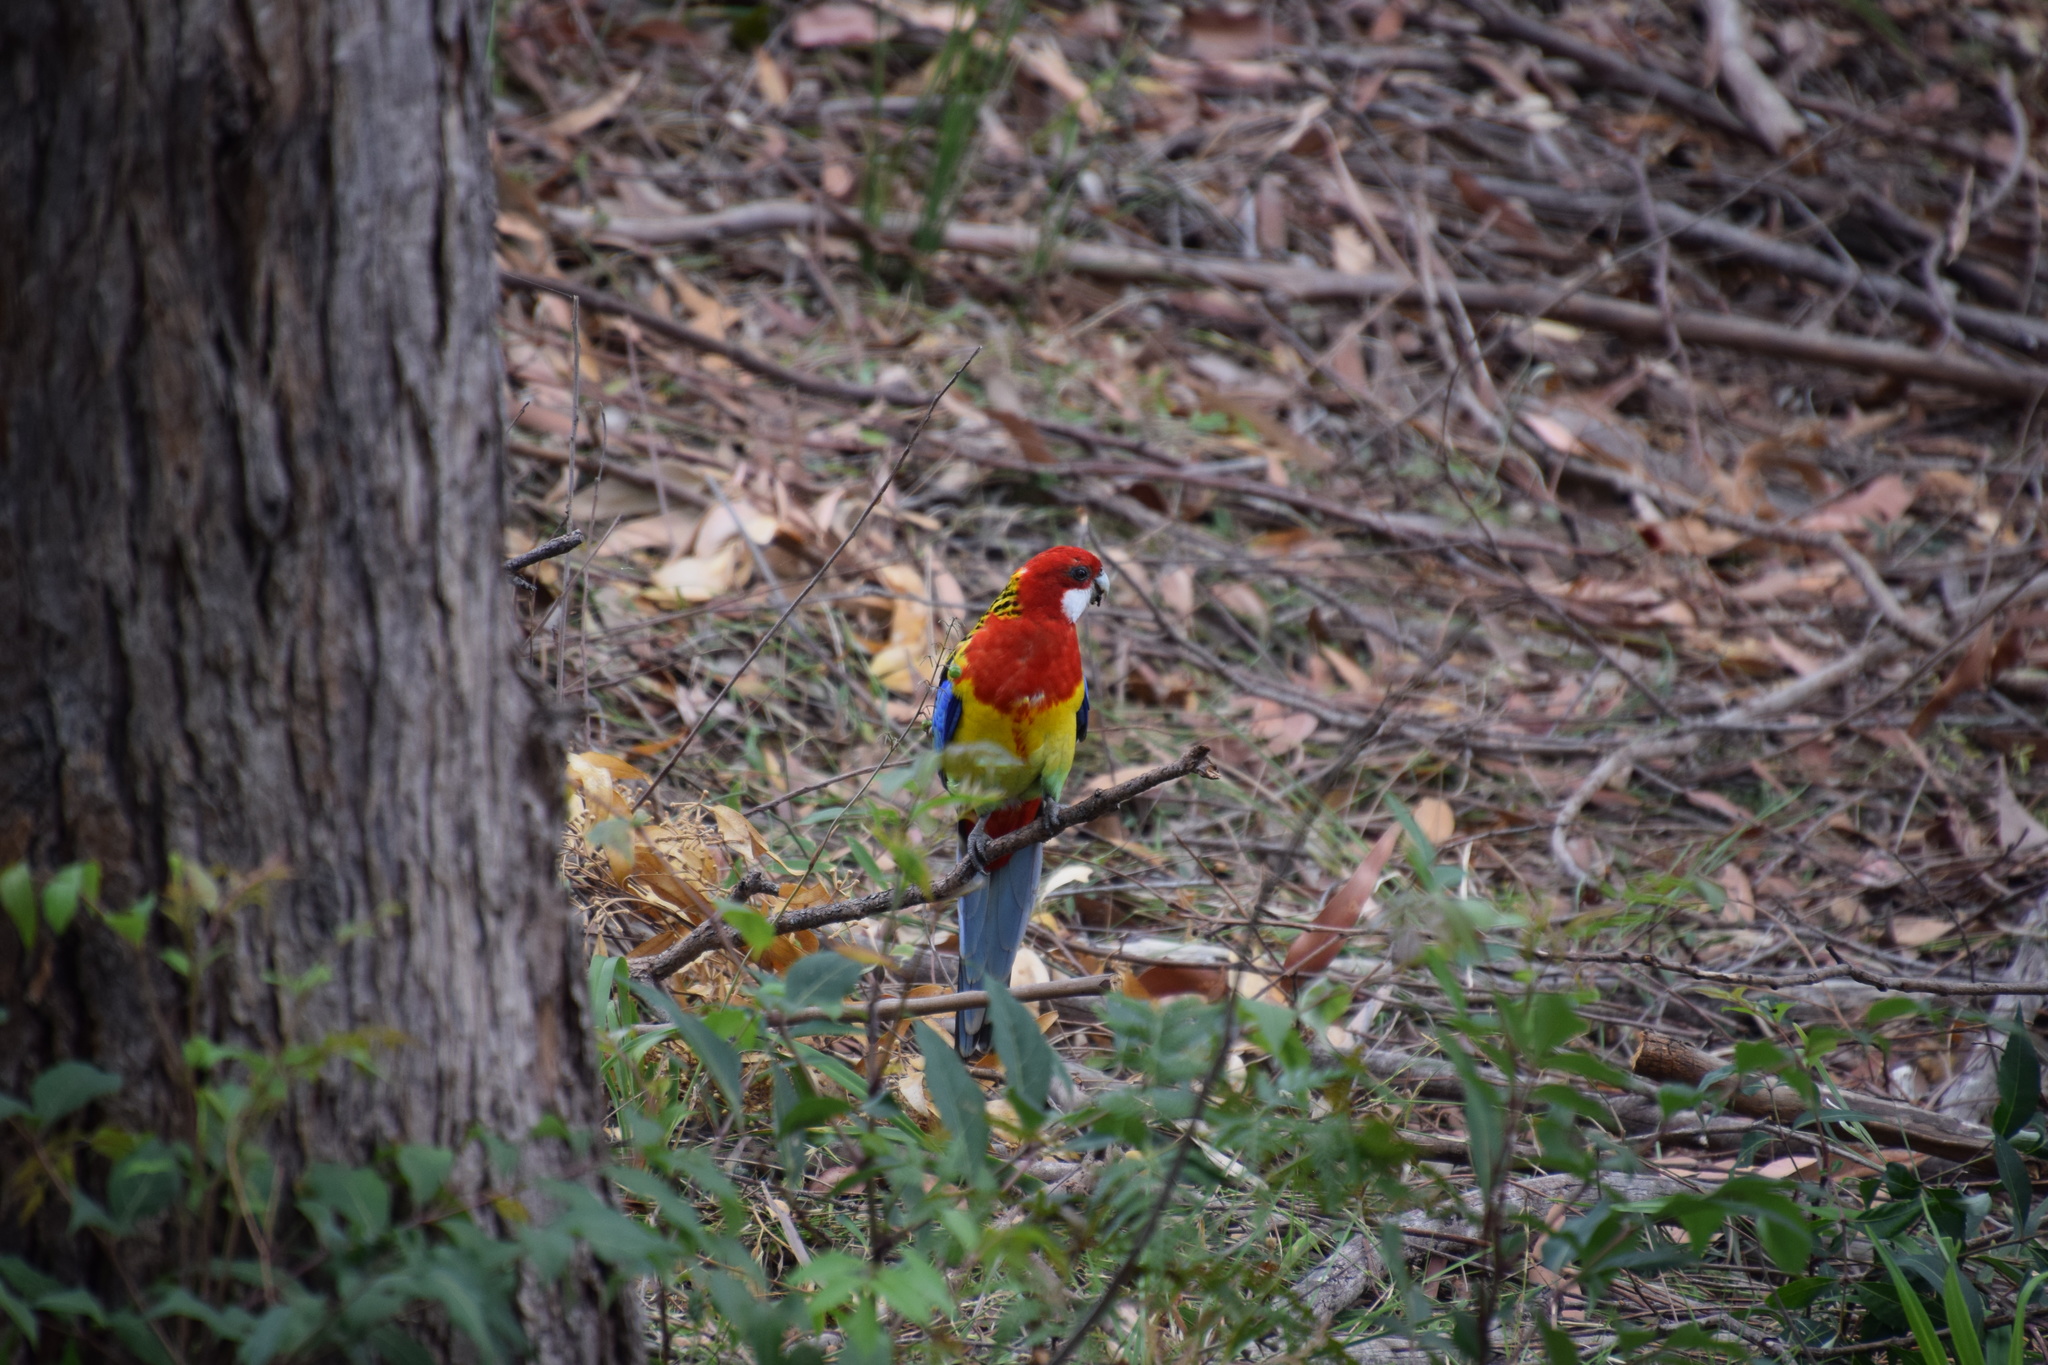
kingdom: Animalia
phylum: Chordata
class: Aves
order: Psittaciformes
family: Psittacidae
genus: Platycercus
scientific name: Platycercus eximius
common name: Eastern rosella
